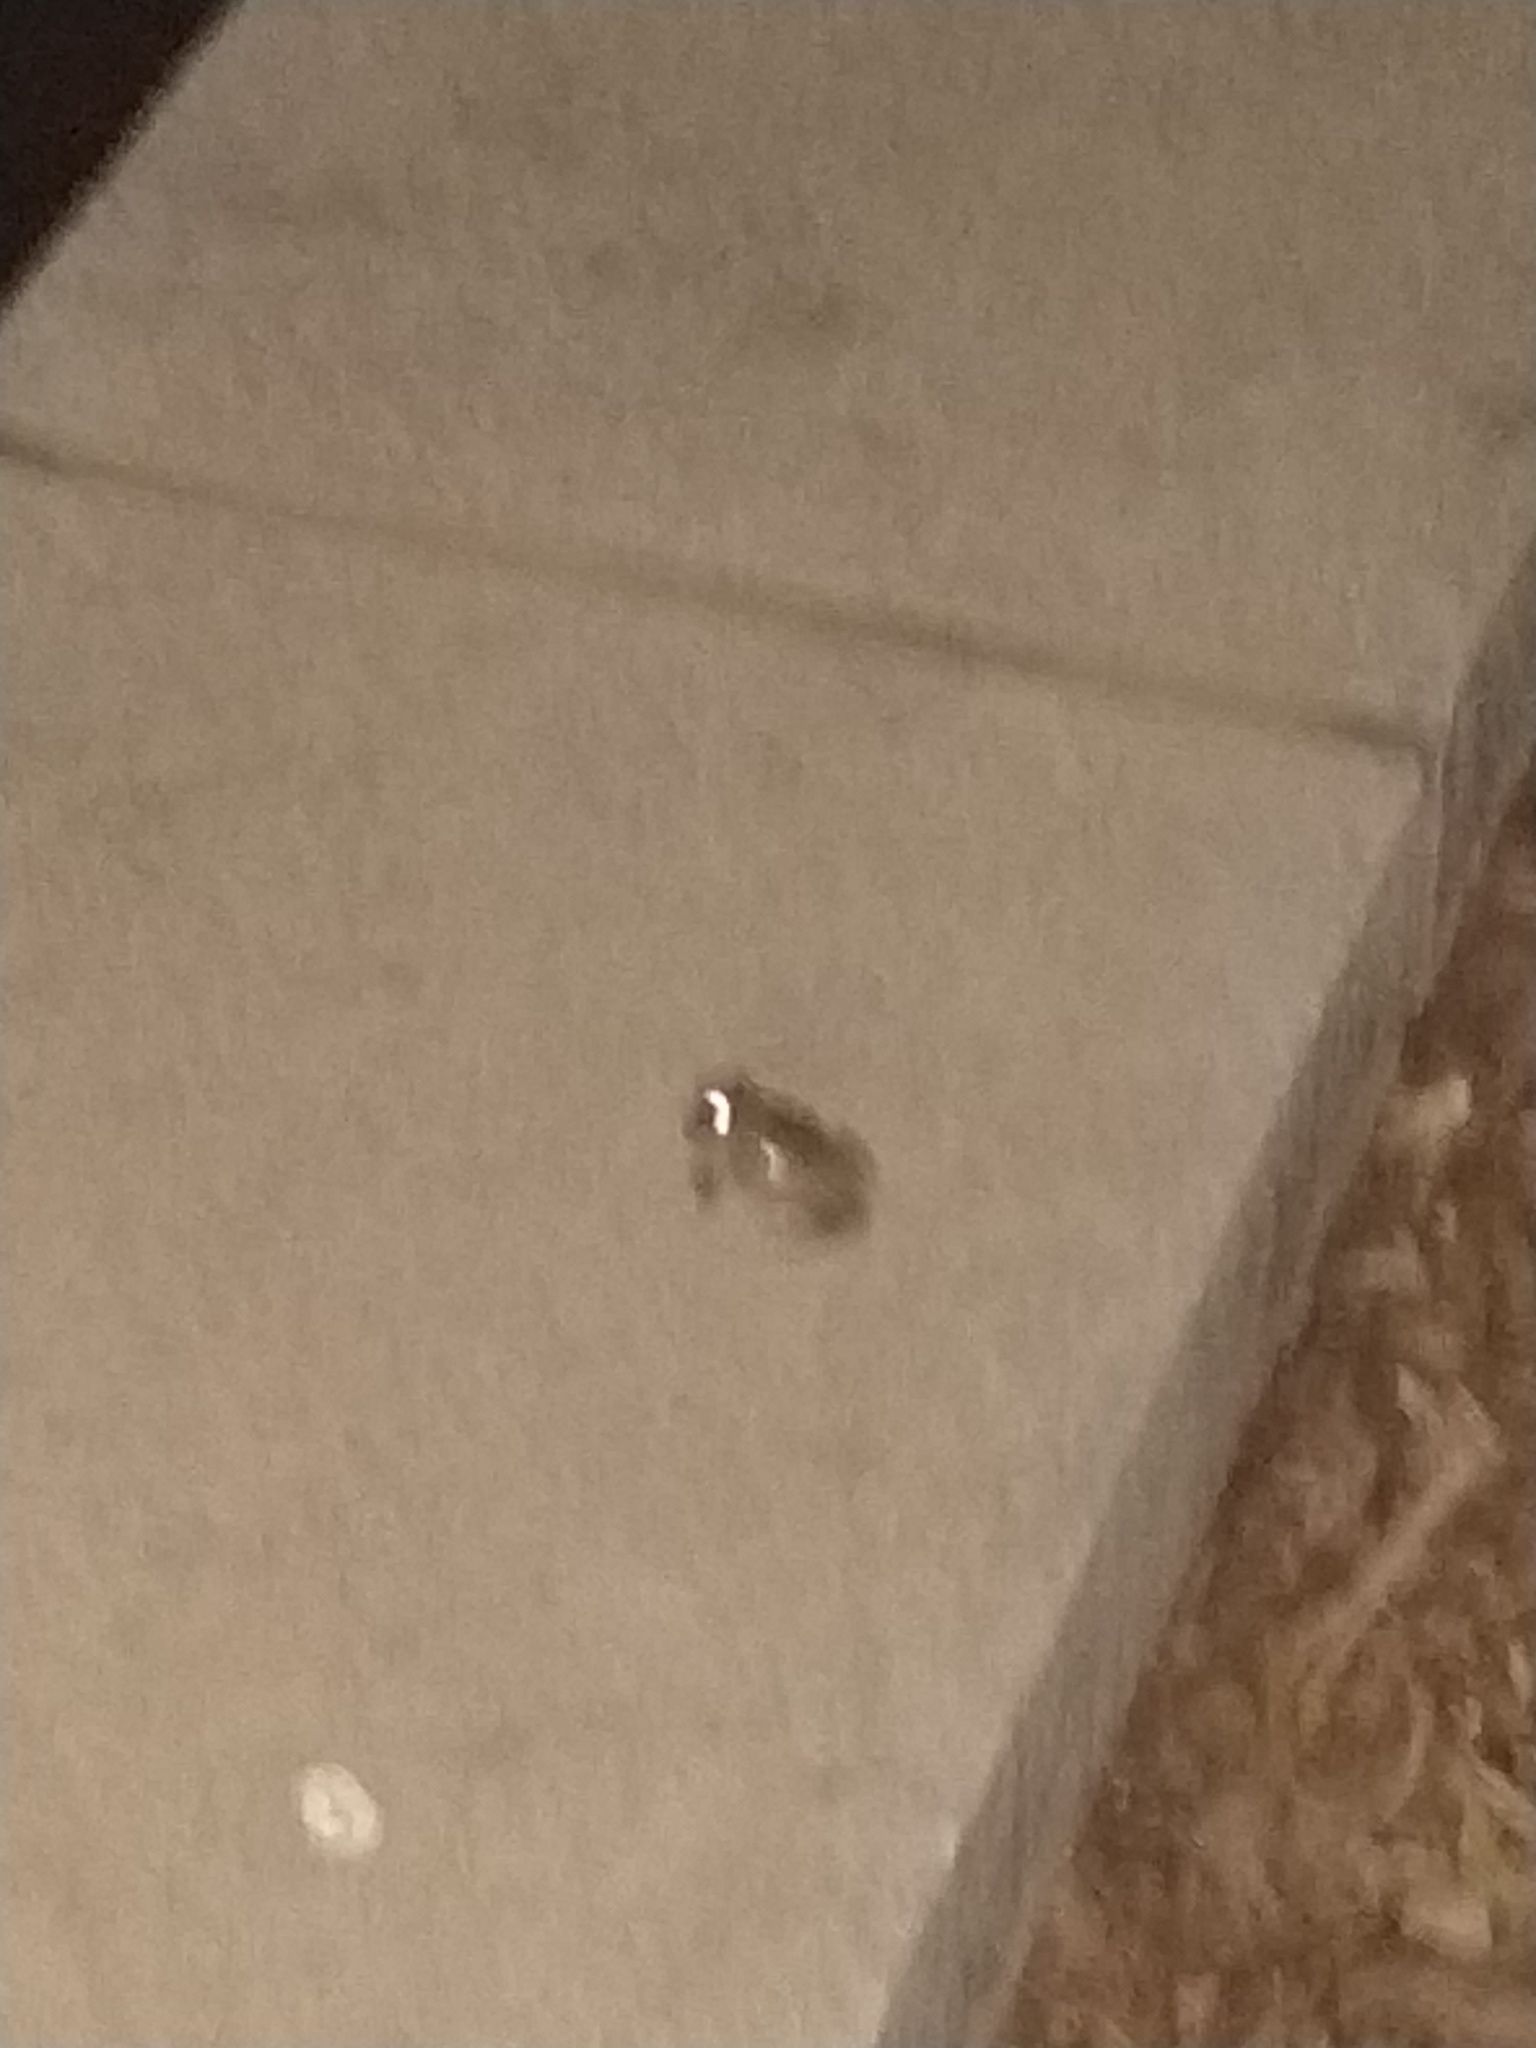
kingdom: Animalia
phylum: Chordata
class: Amphibia
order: Anura
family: Hylidae
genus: Dryophytes
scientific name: Dryophytes versicolor
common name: Gray treefrog
